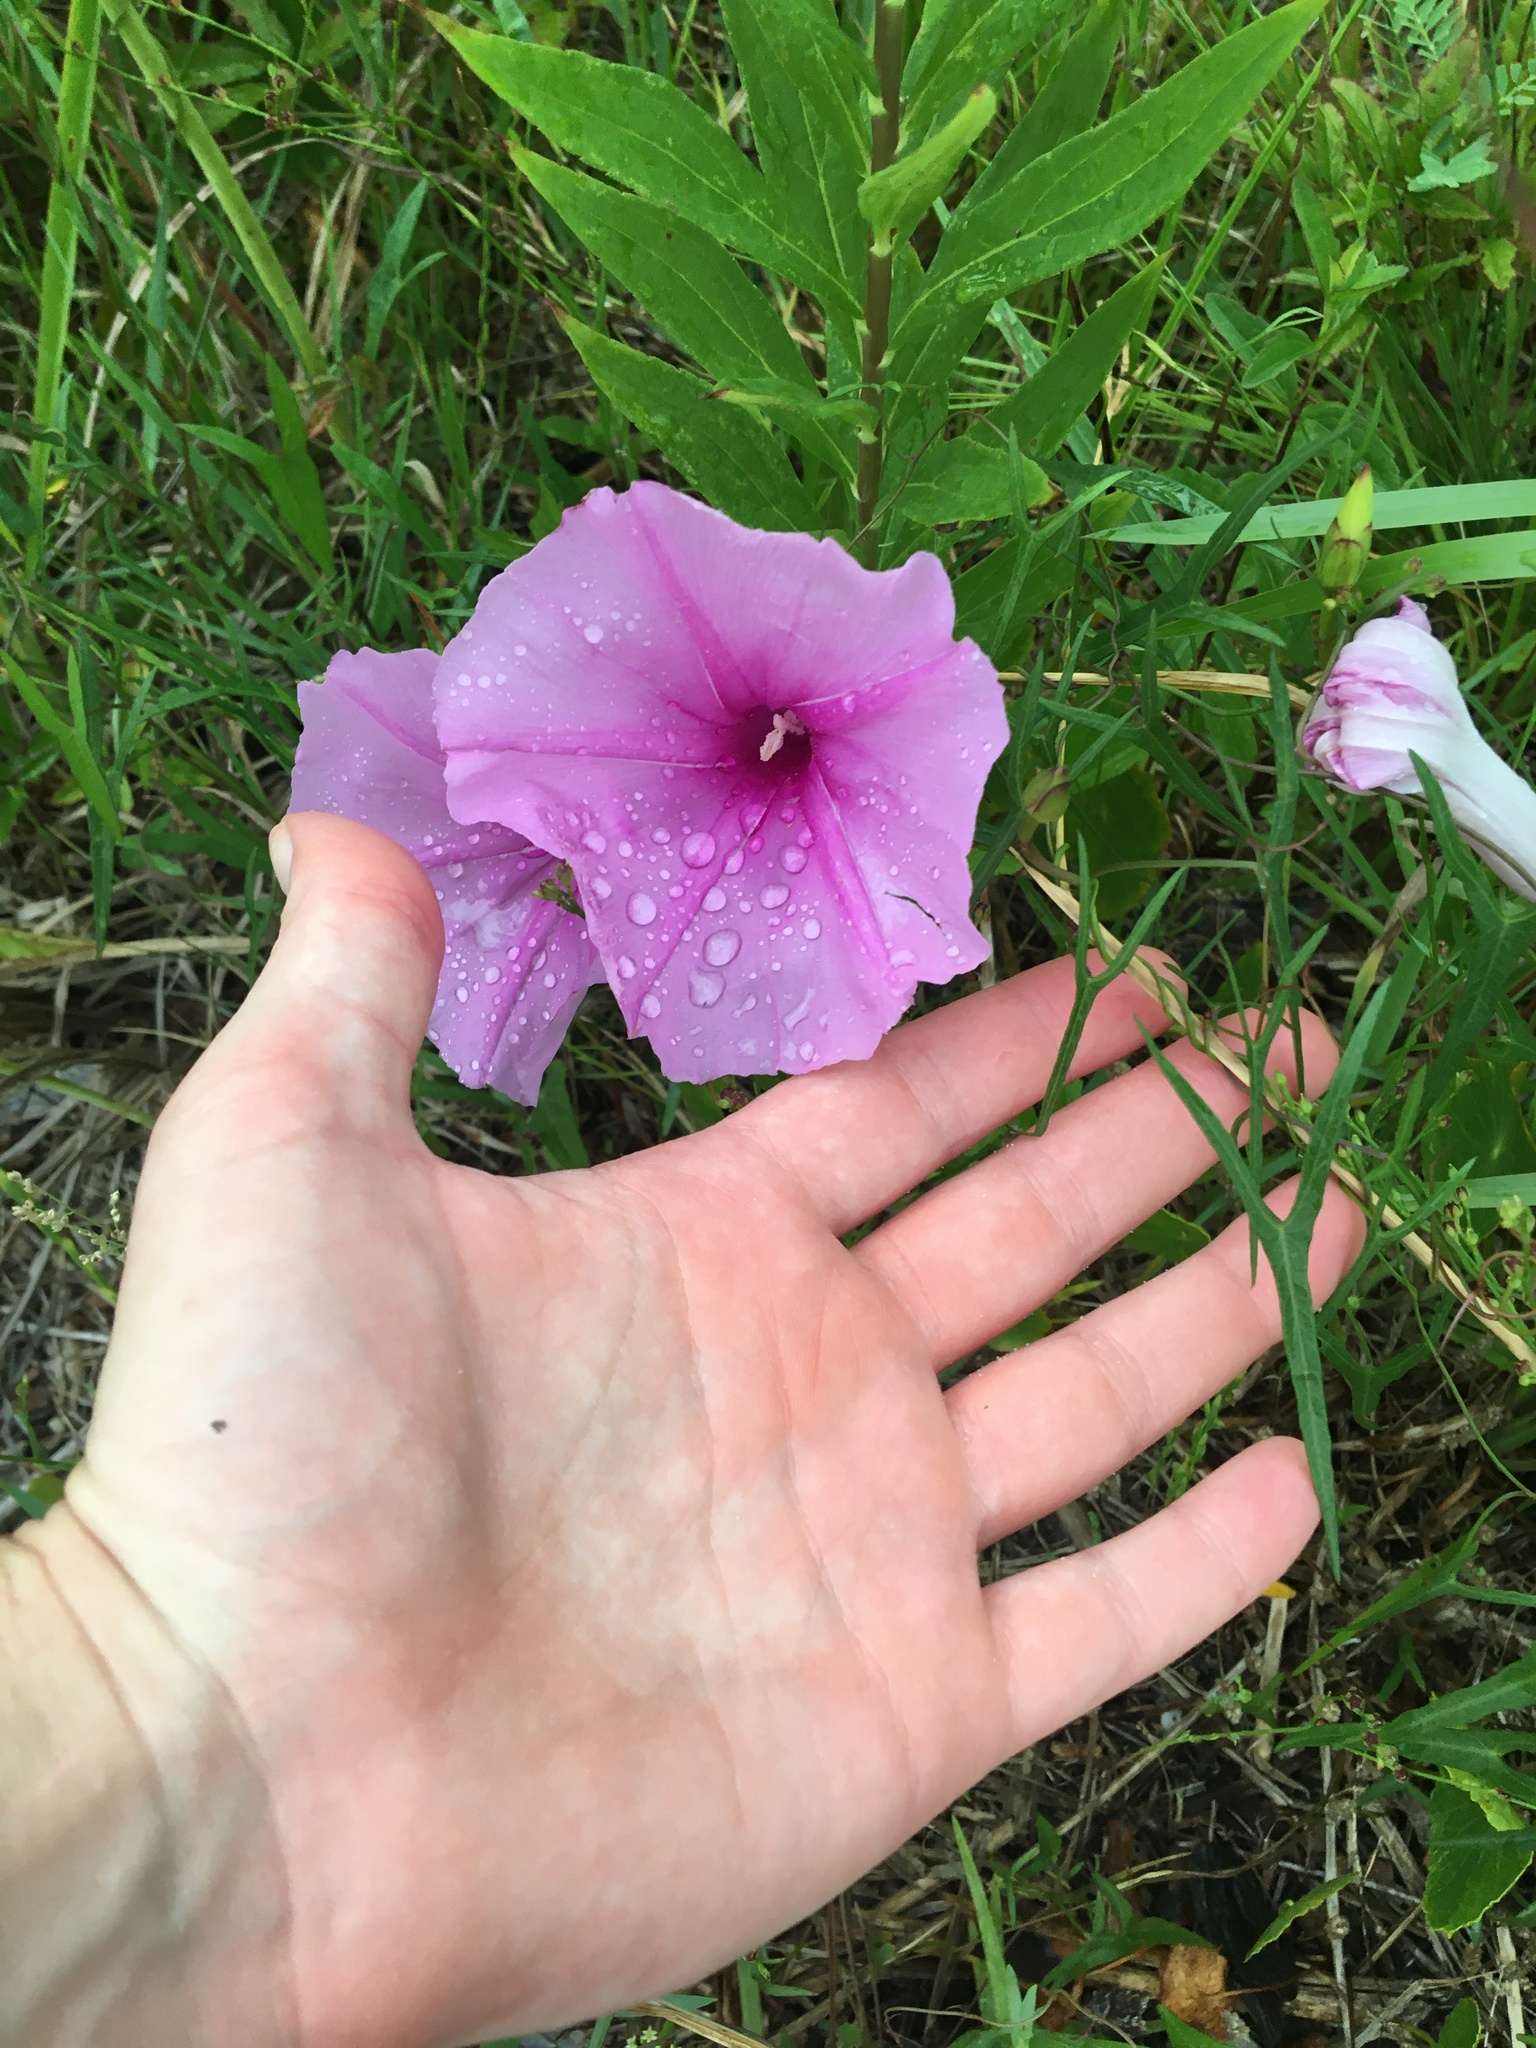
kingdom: Plantae
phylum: Tracheophyta
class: Magnoliopsida
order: Solanales
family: Convolvulaceae
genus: Ipomoea
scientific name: Ipomoea sagittata
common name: Saltmarsh morning glory
